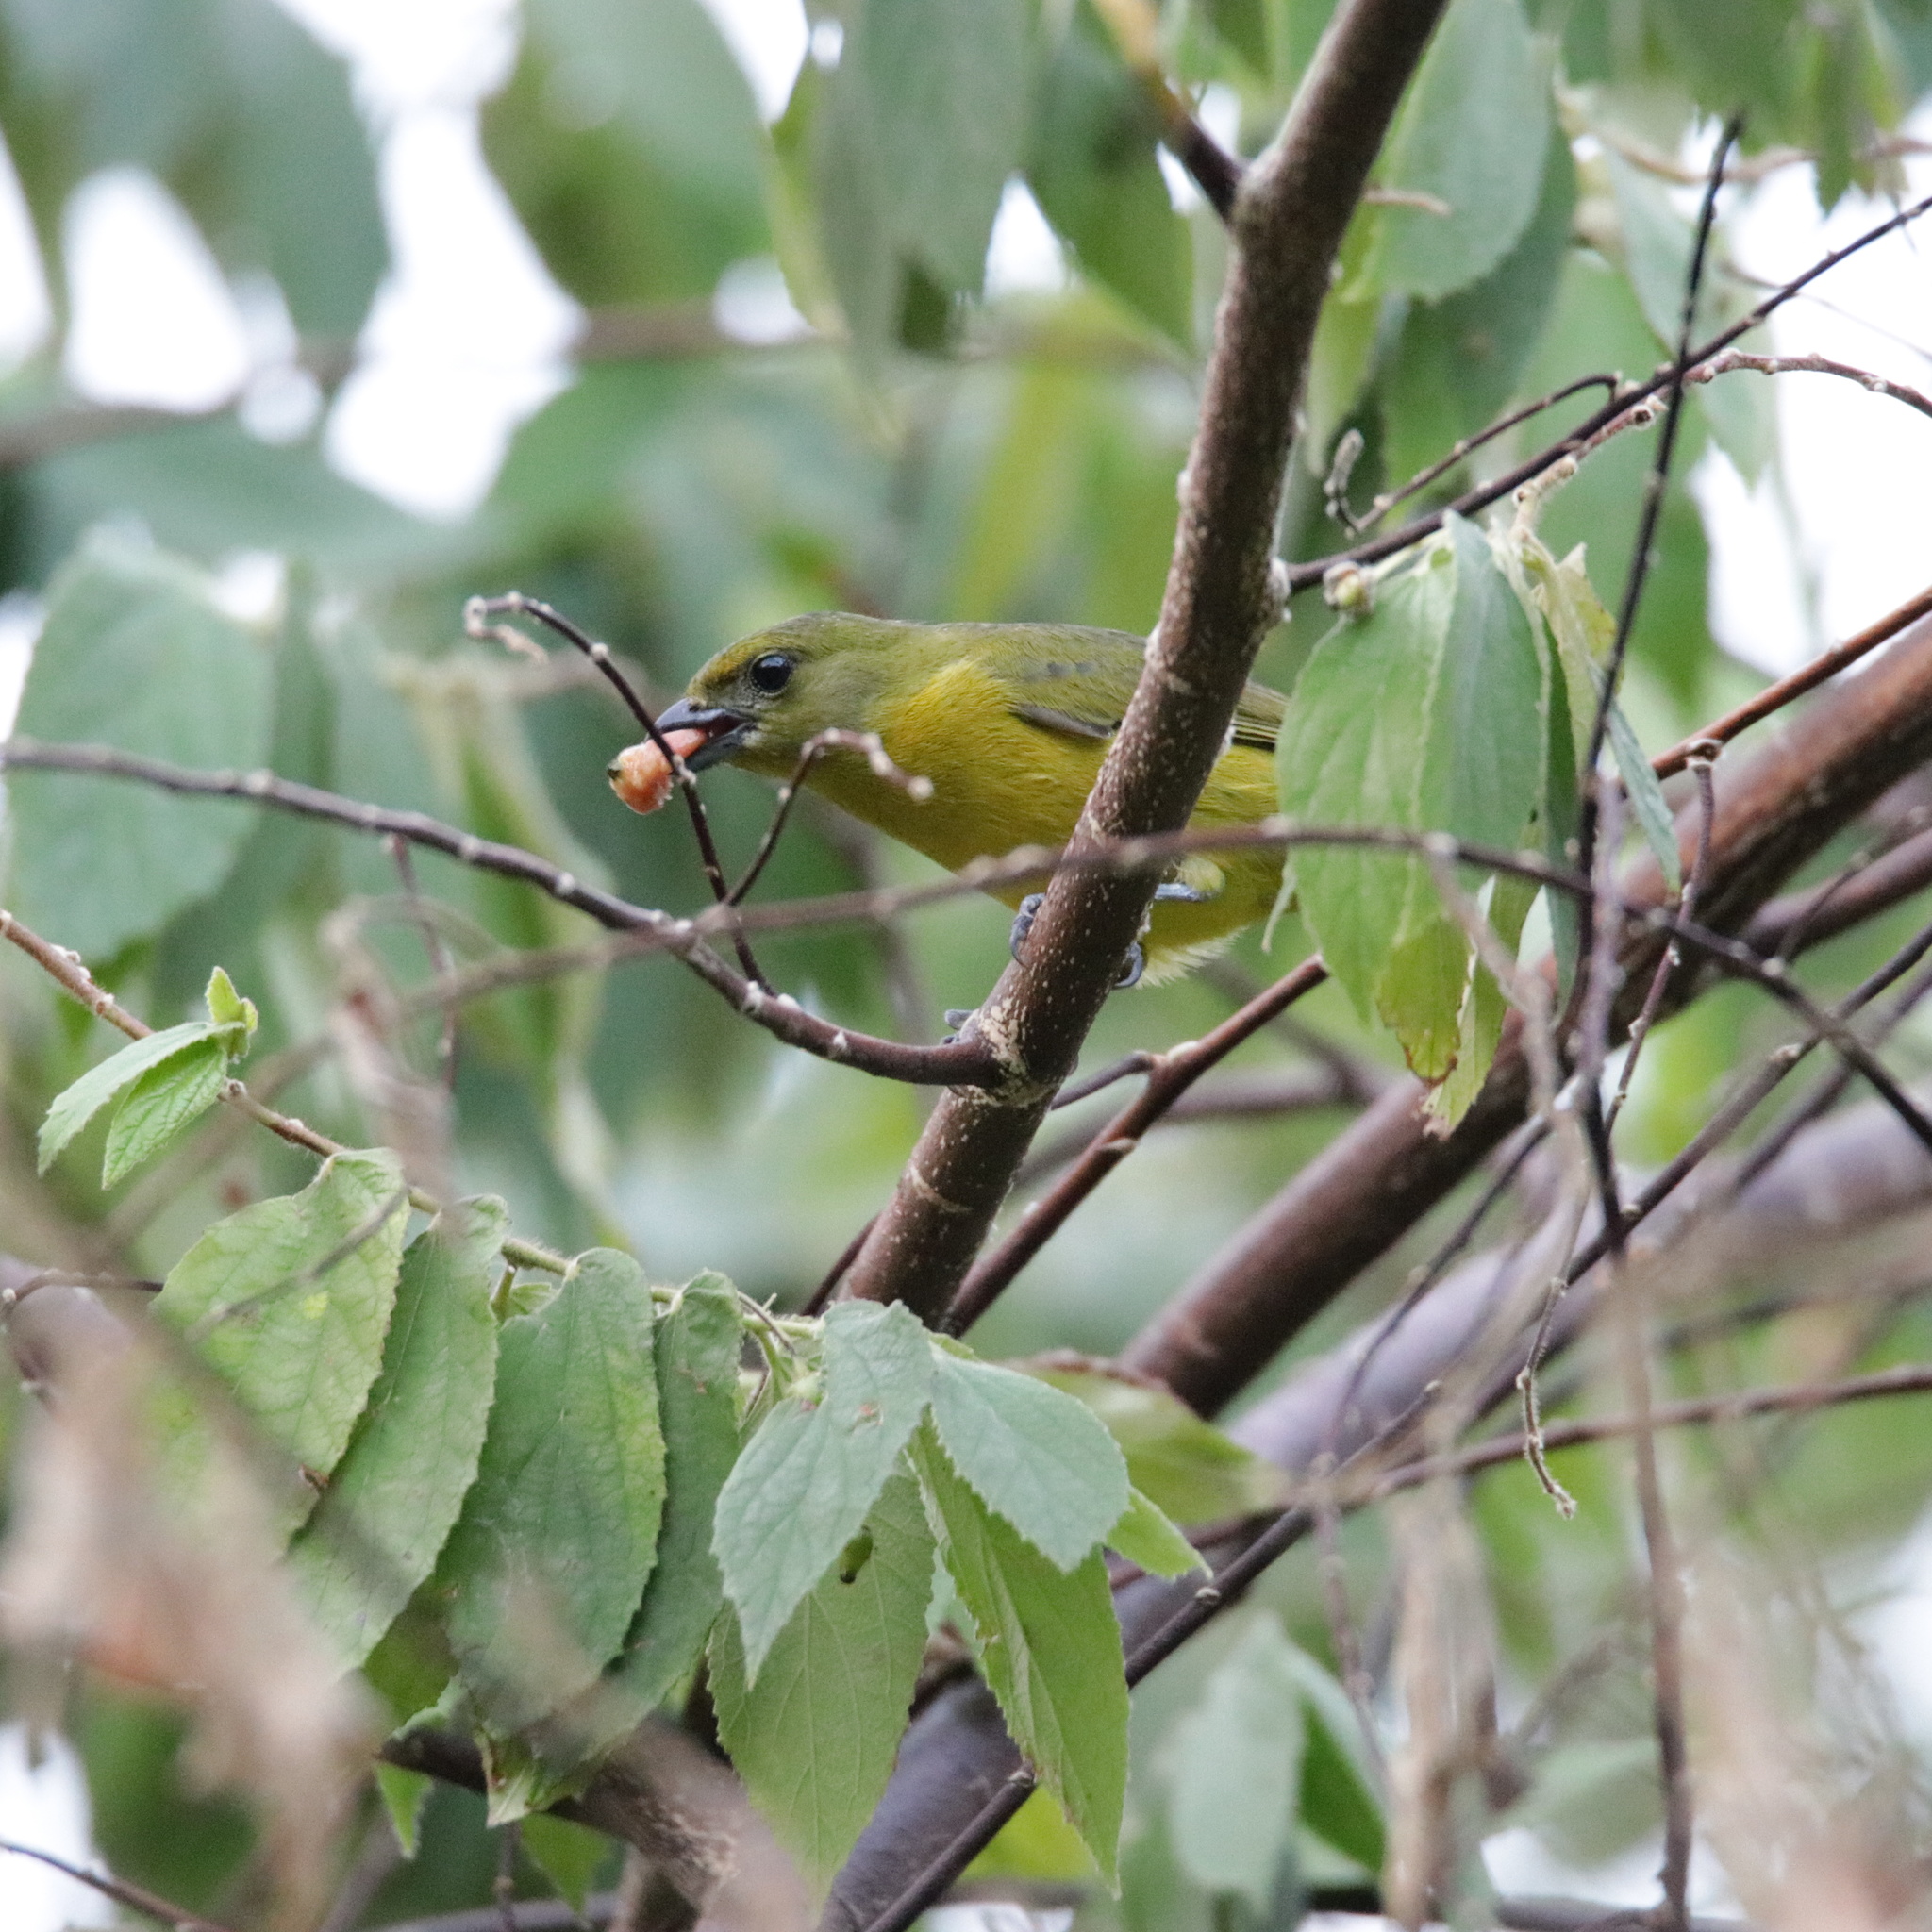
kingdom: Animalia
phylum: Chordata
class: Aves
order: Passeriformes
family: Fringillidae
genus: Euphonia
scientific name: Euphonia laniirostris
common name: Thick-billed euphonia
